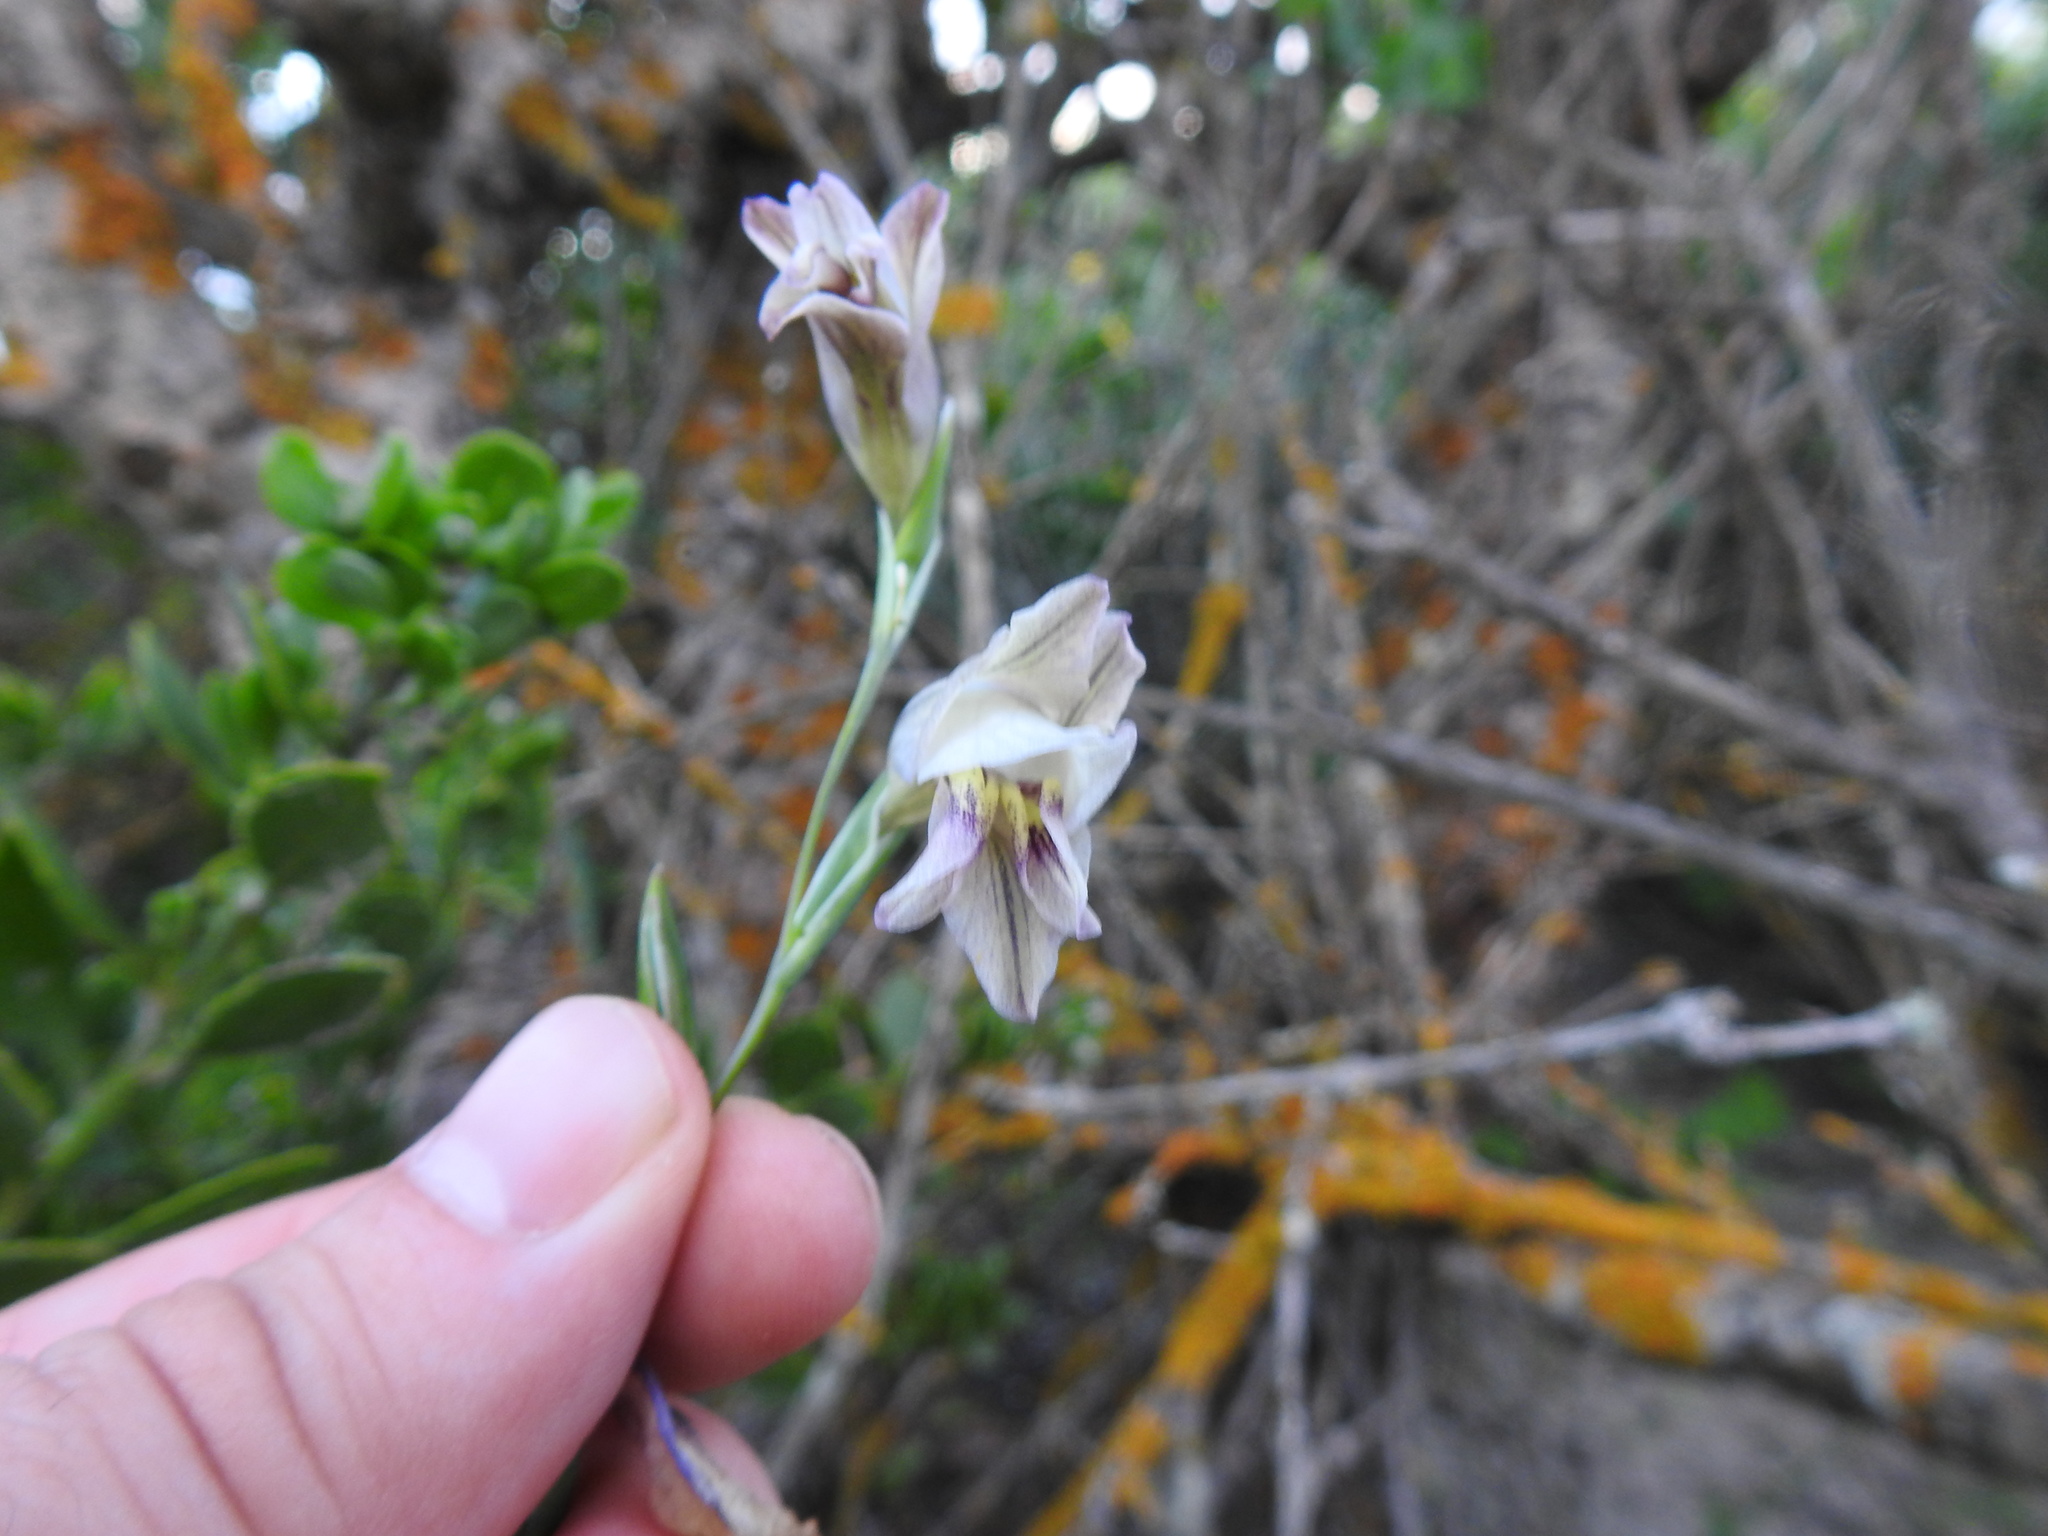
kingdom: Plantae
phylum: Tracheophyta
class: Liliopsida
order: Asparagales
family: Iridaceae
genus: Gladiolus
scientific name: Gladiolus griseus
